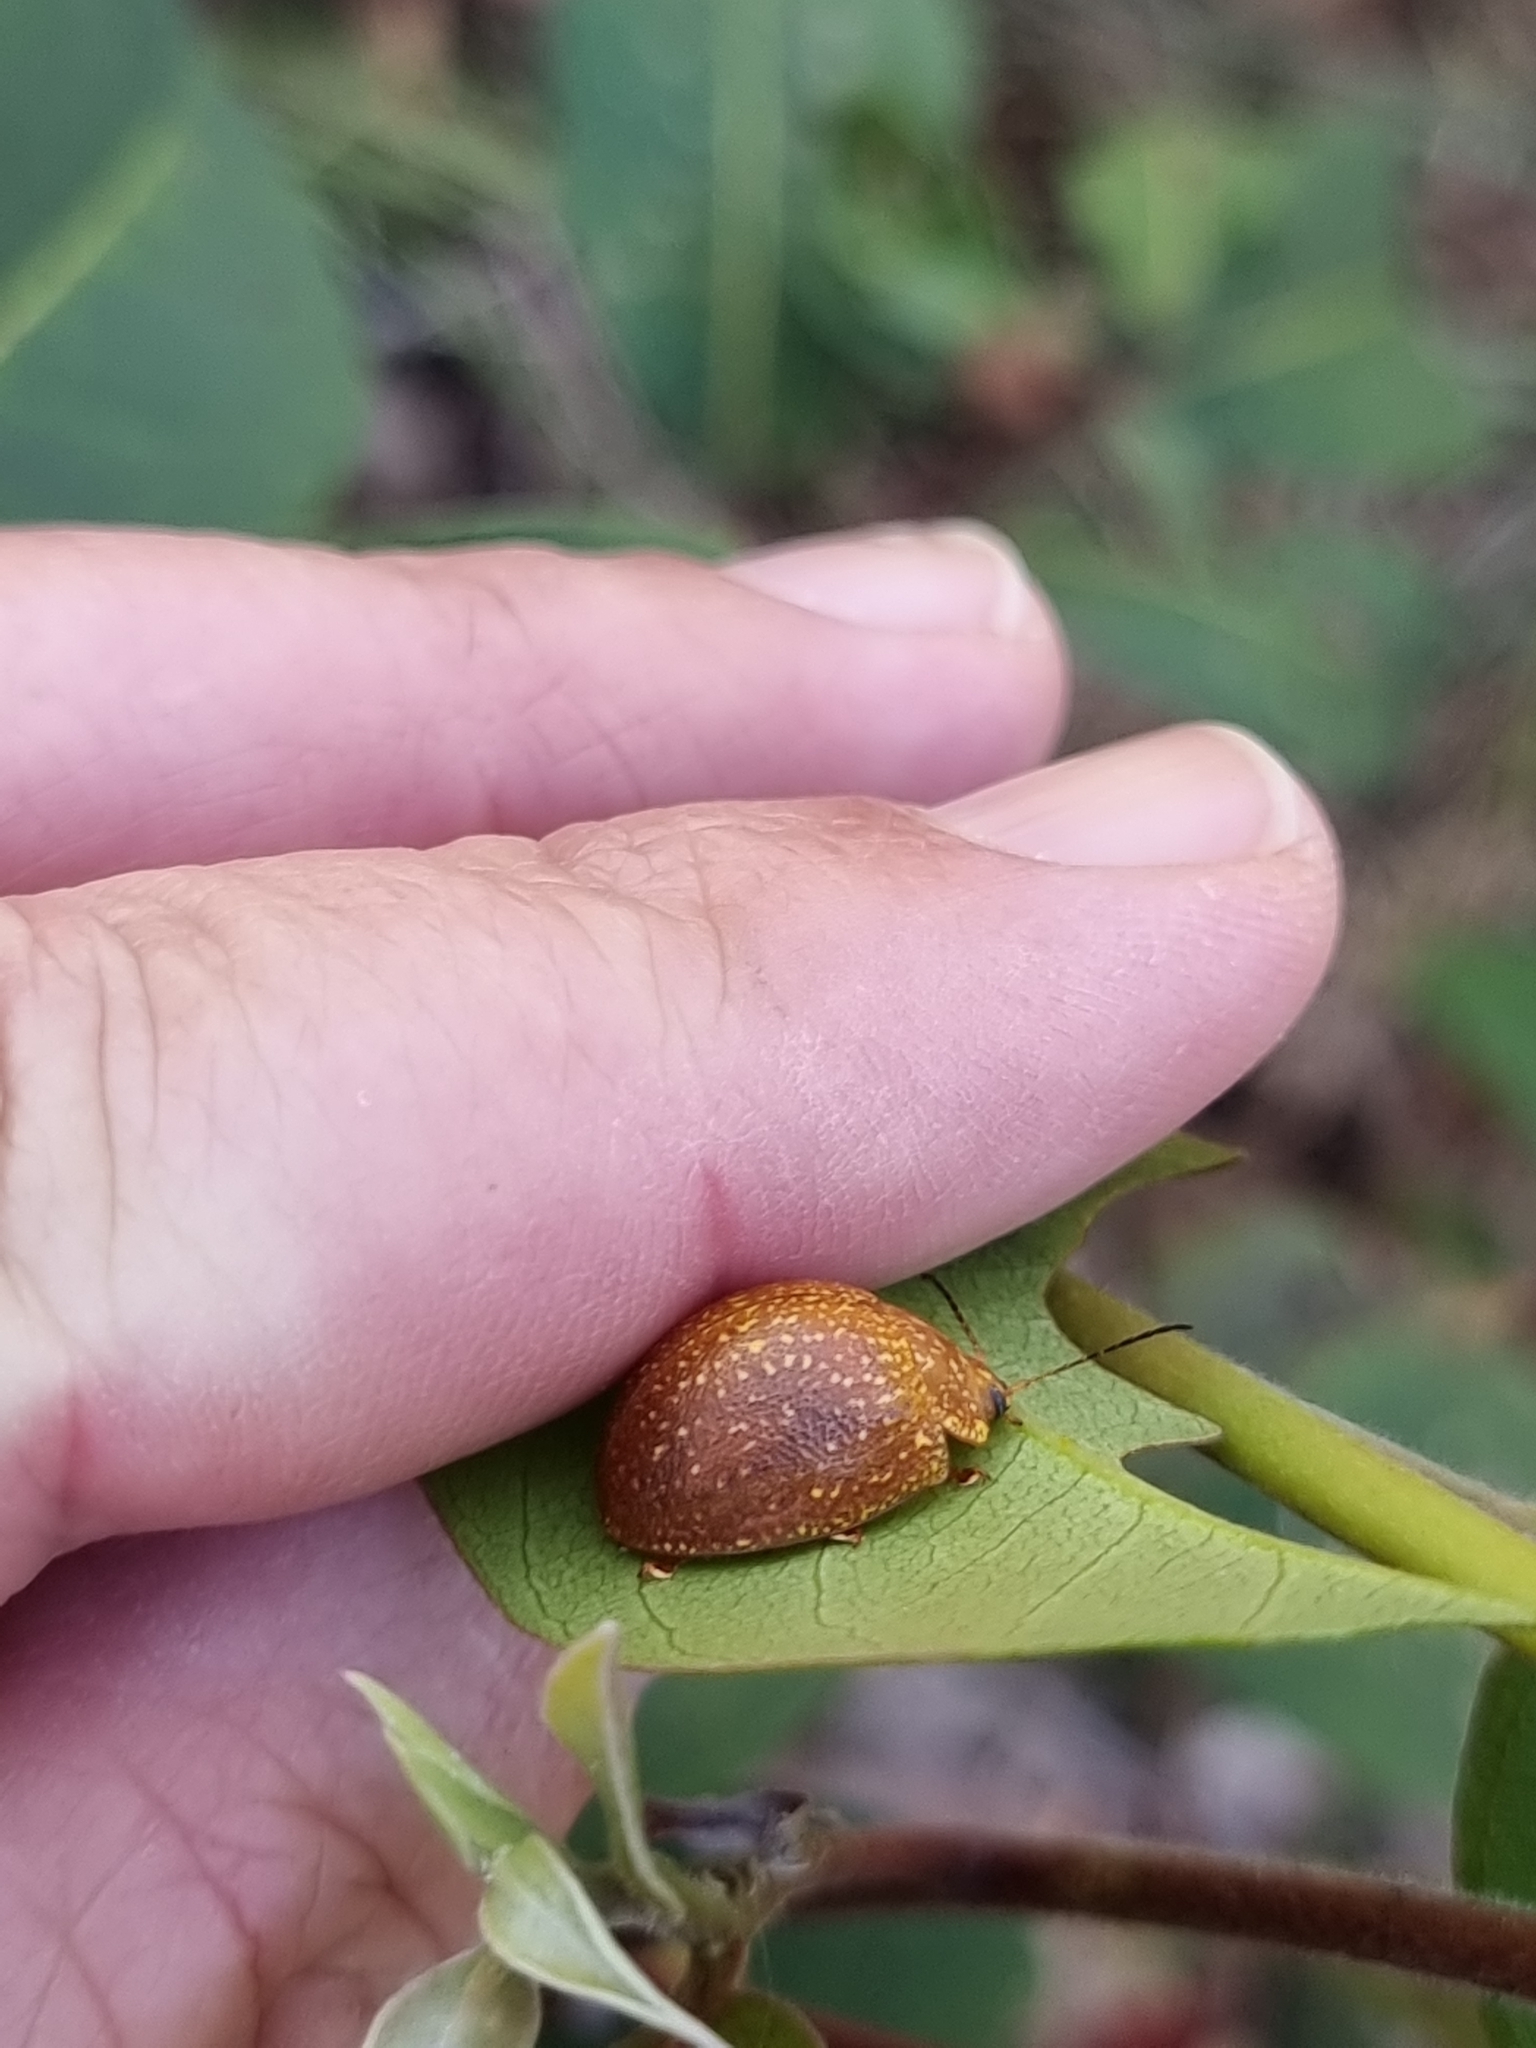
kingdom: Animalia
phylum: Arthropoda
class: Insecta
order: Coleoptera
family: Chrysomelidae
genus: Paropsisterna
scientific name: Paropsisterna cloelia
